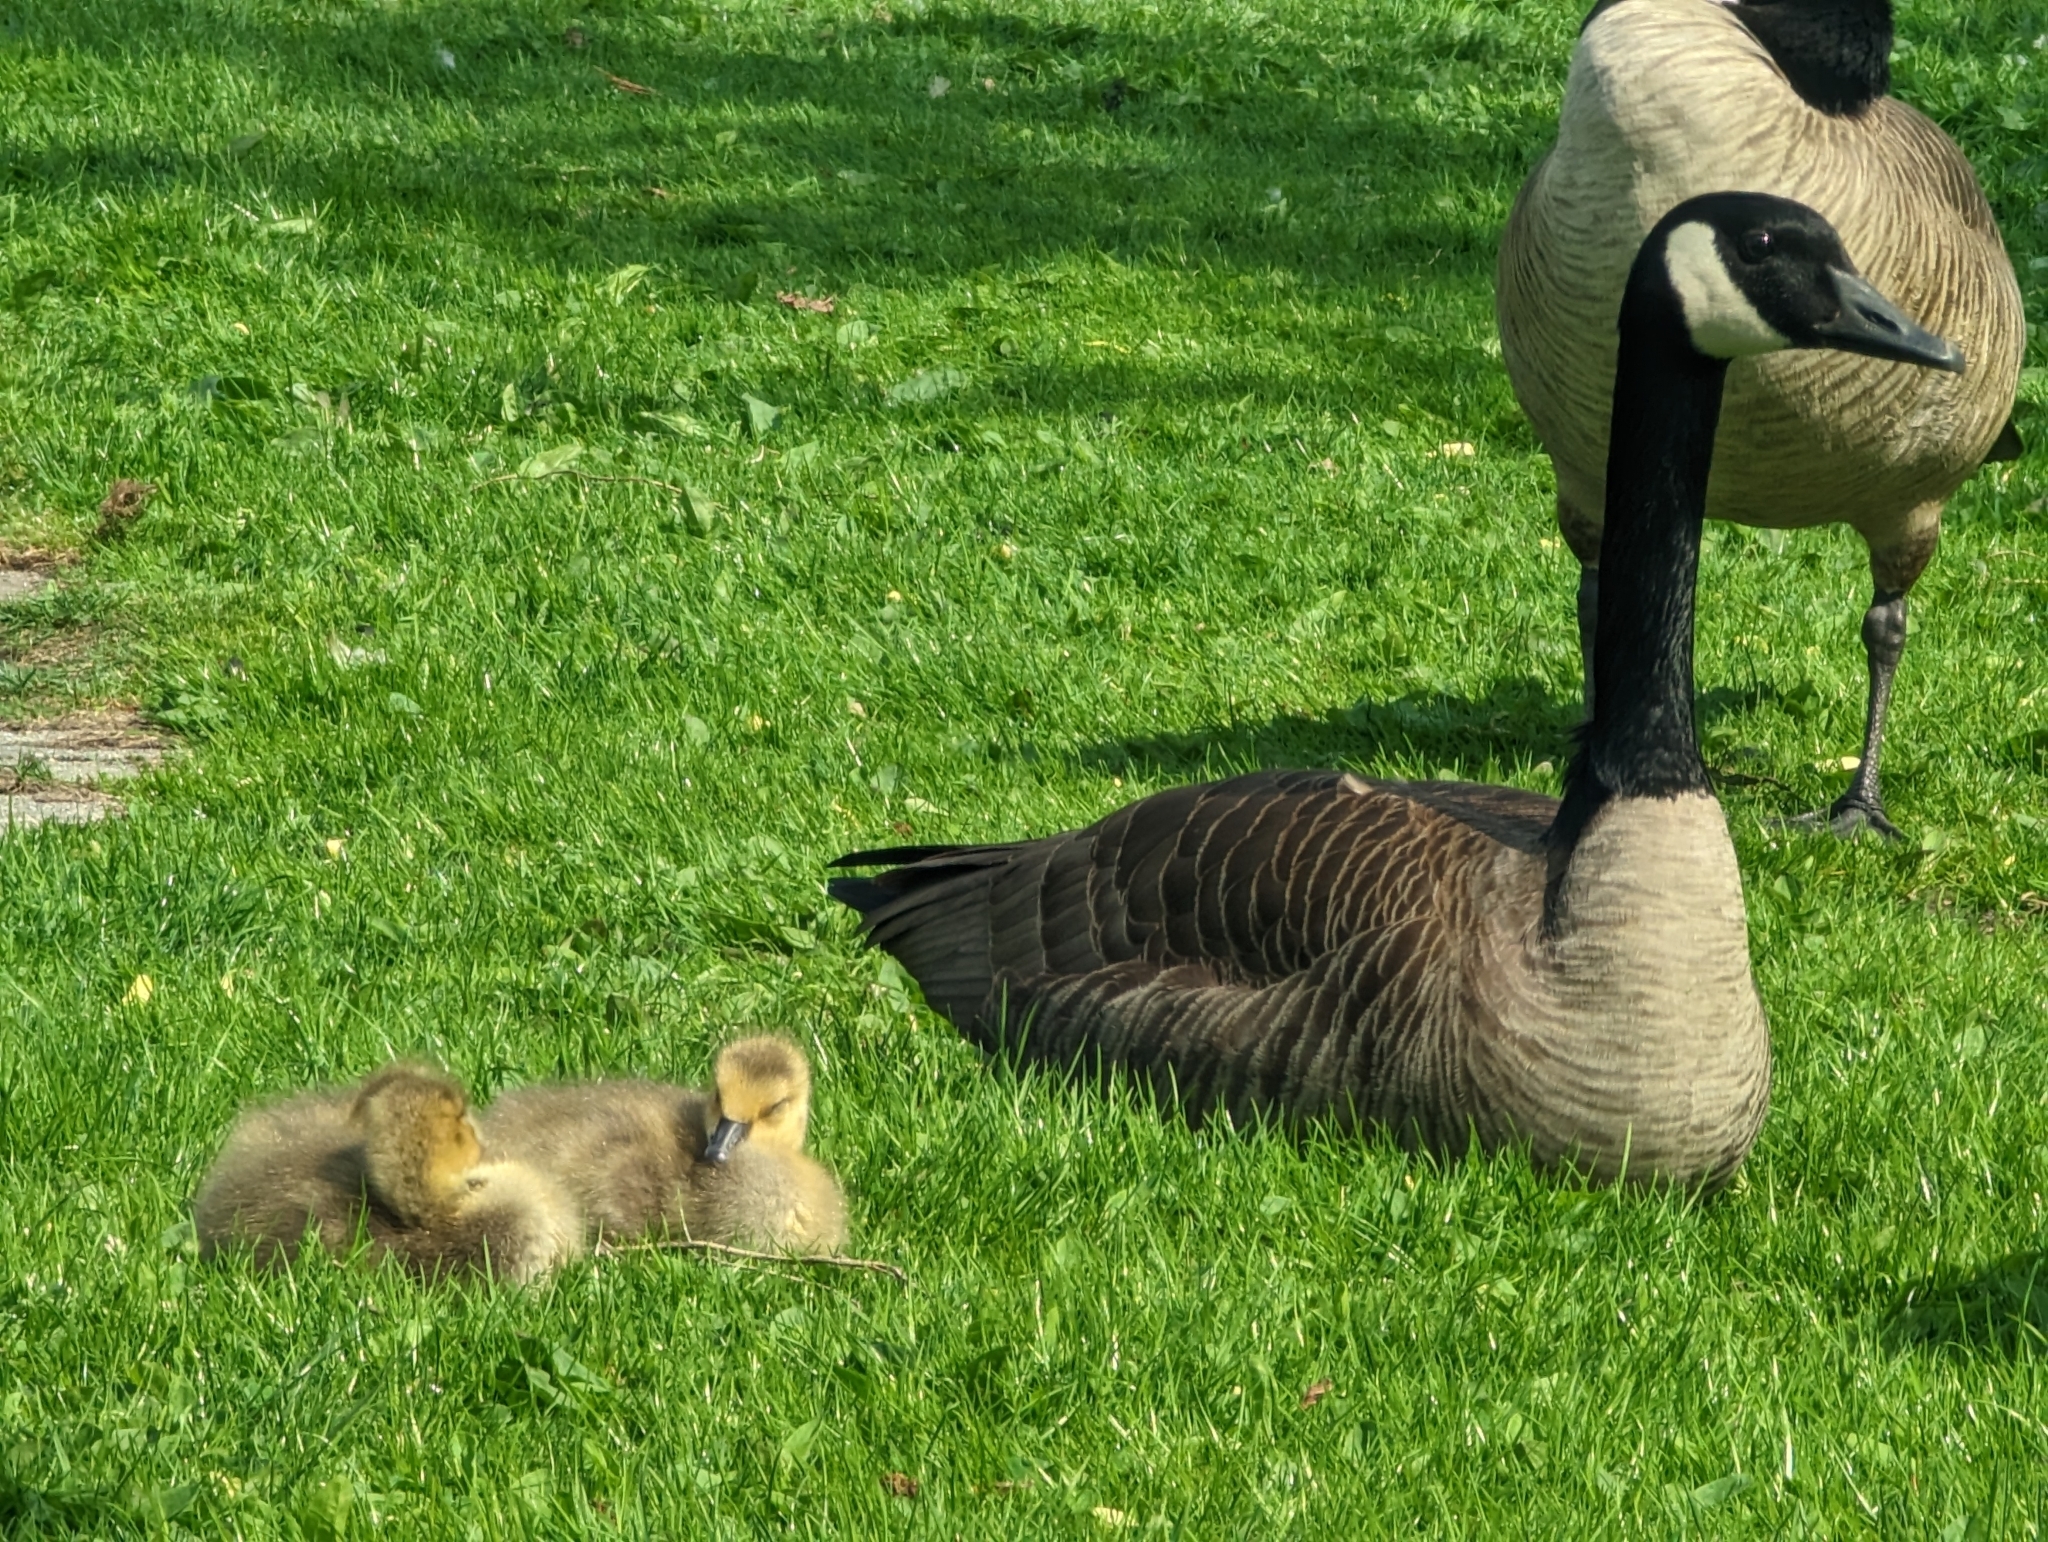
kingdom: Animalia
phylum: Chordata
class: Aves
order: Anseriformes
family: Anatidae
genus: Branta
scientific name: Branta canadensis
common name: Canada goose
